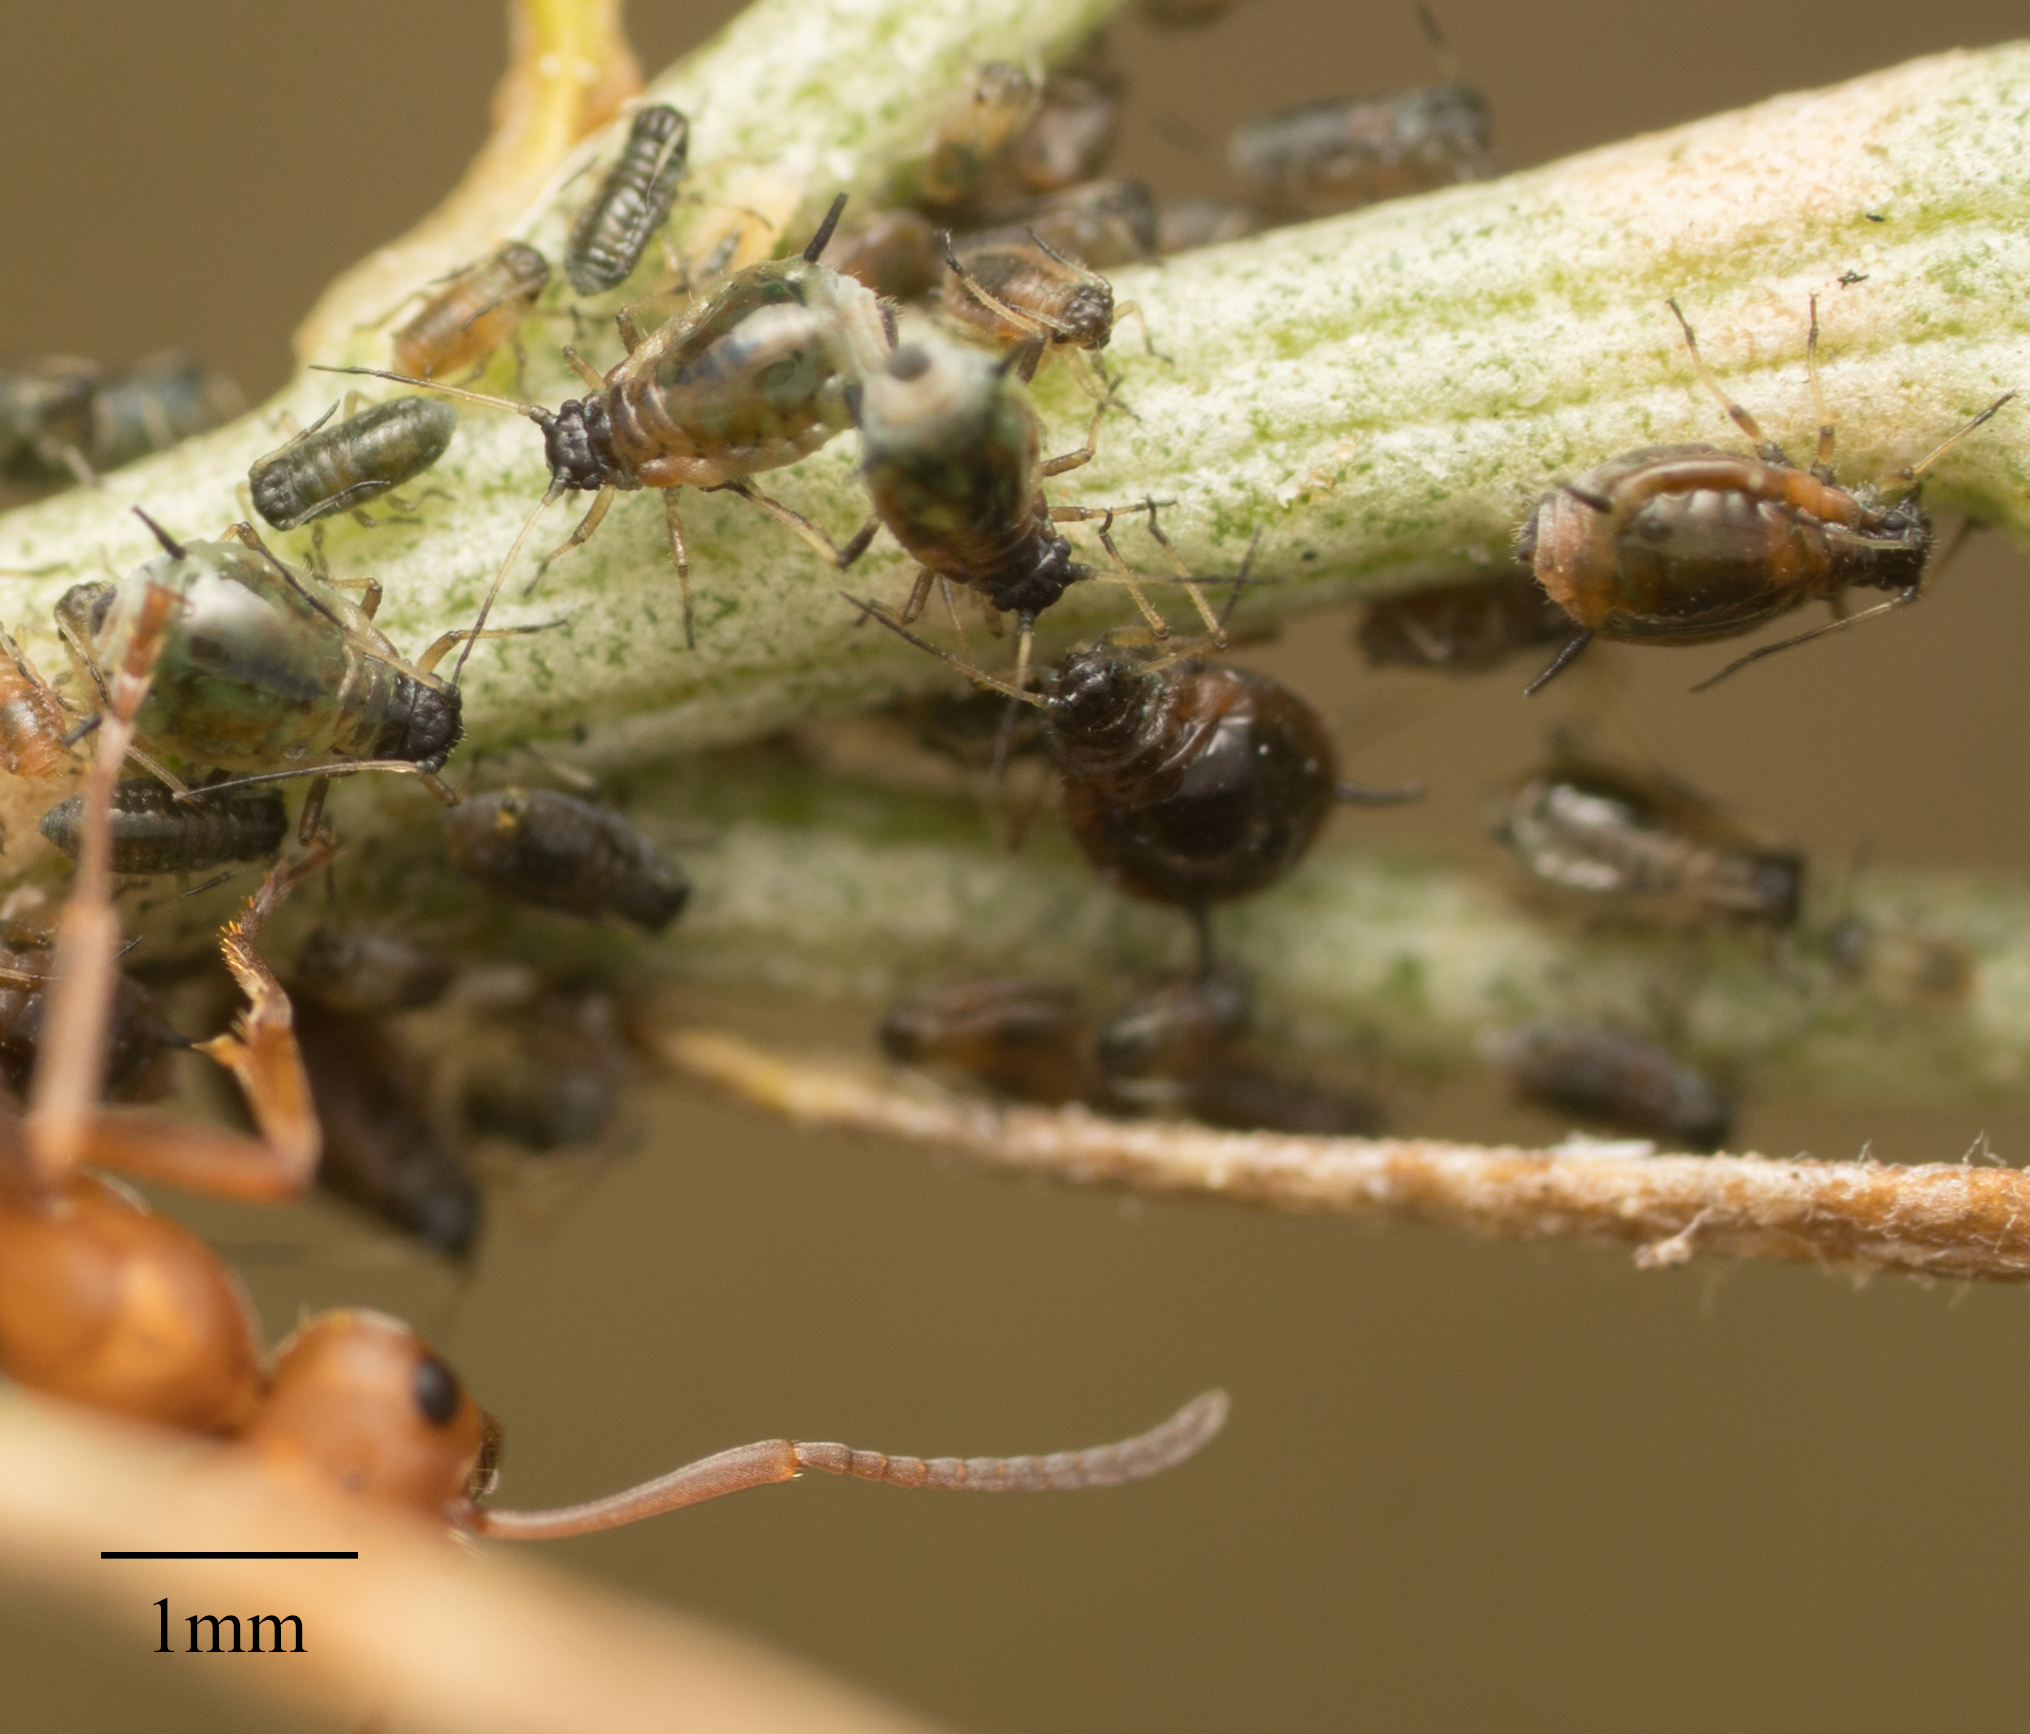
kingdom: Animalia
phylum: Arthropoda
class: Insecta
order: Hemiptera
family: Aphididae
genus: Aphis
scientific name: Aphis chrysothamni
